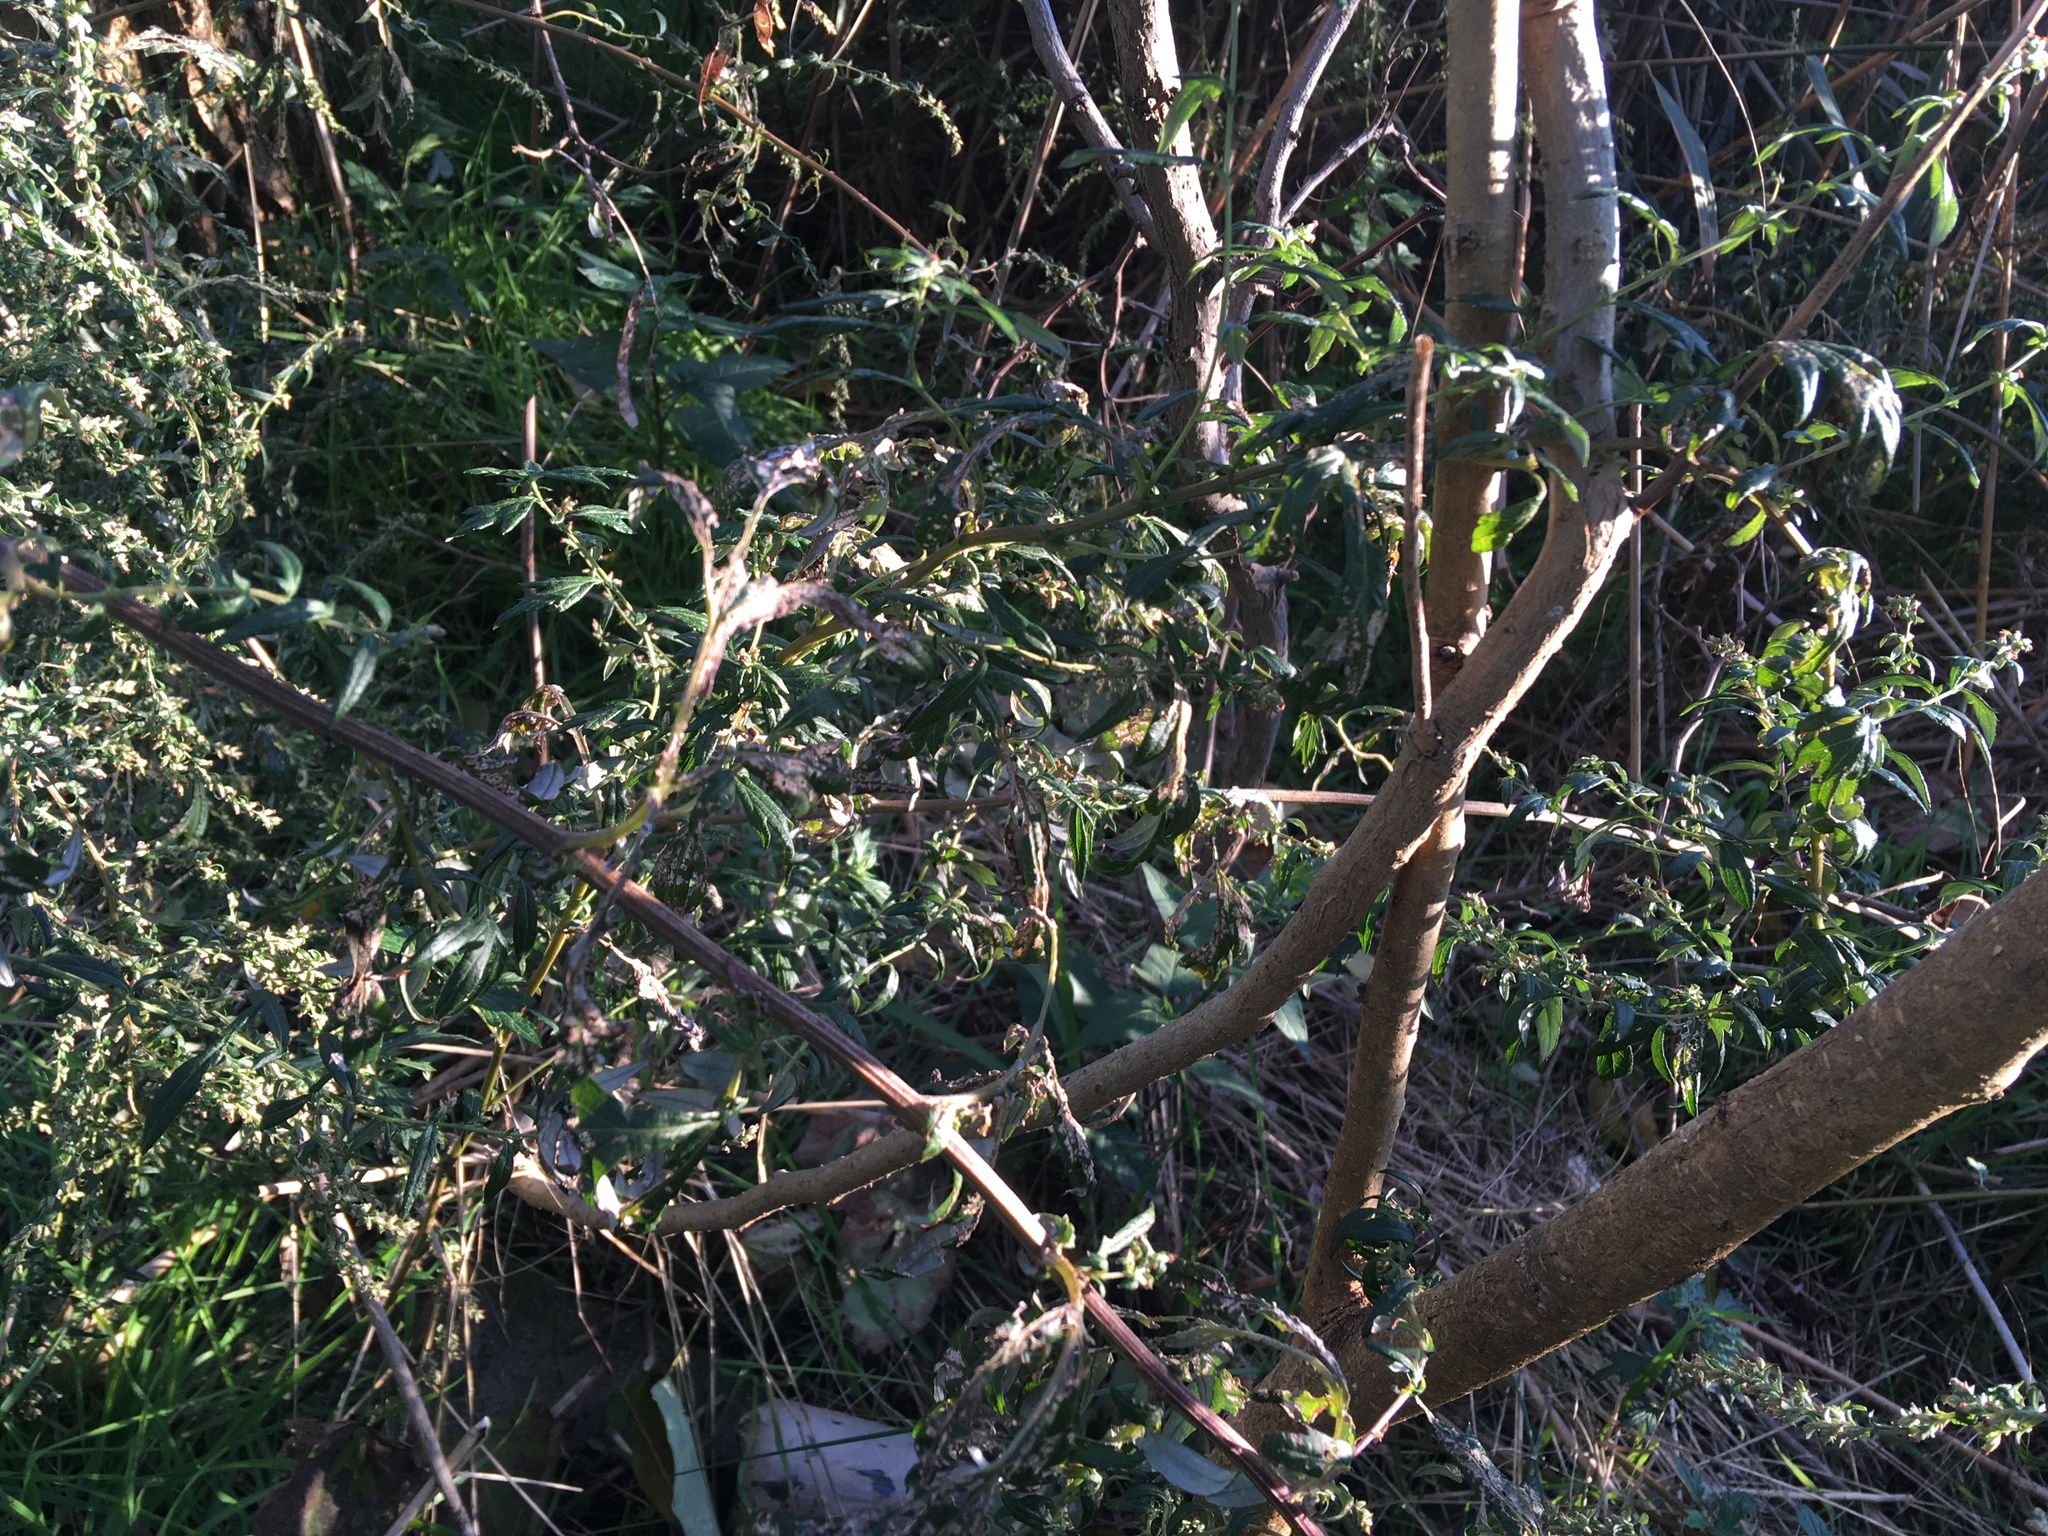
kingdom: Plantae
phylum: Tracheophyta
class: Magnoliopsida
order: Asterales
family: Asteraceae
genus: Artemisia
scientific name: Artemisia vulgaris
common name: Mugwort
